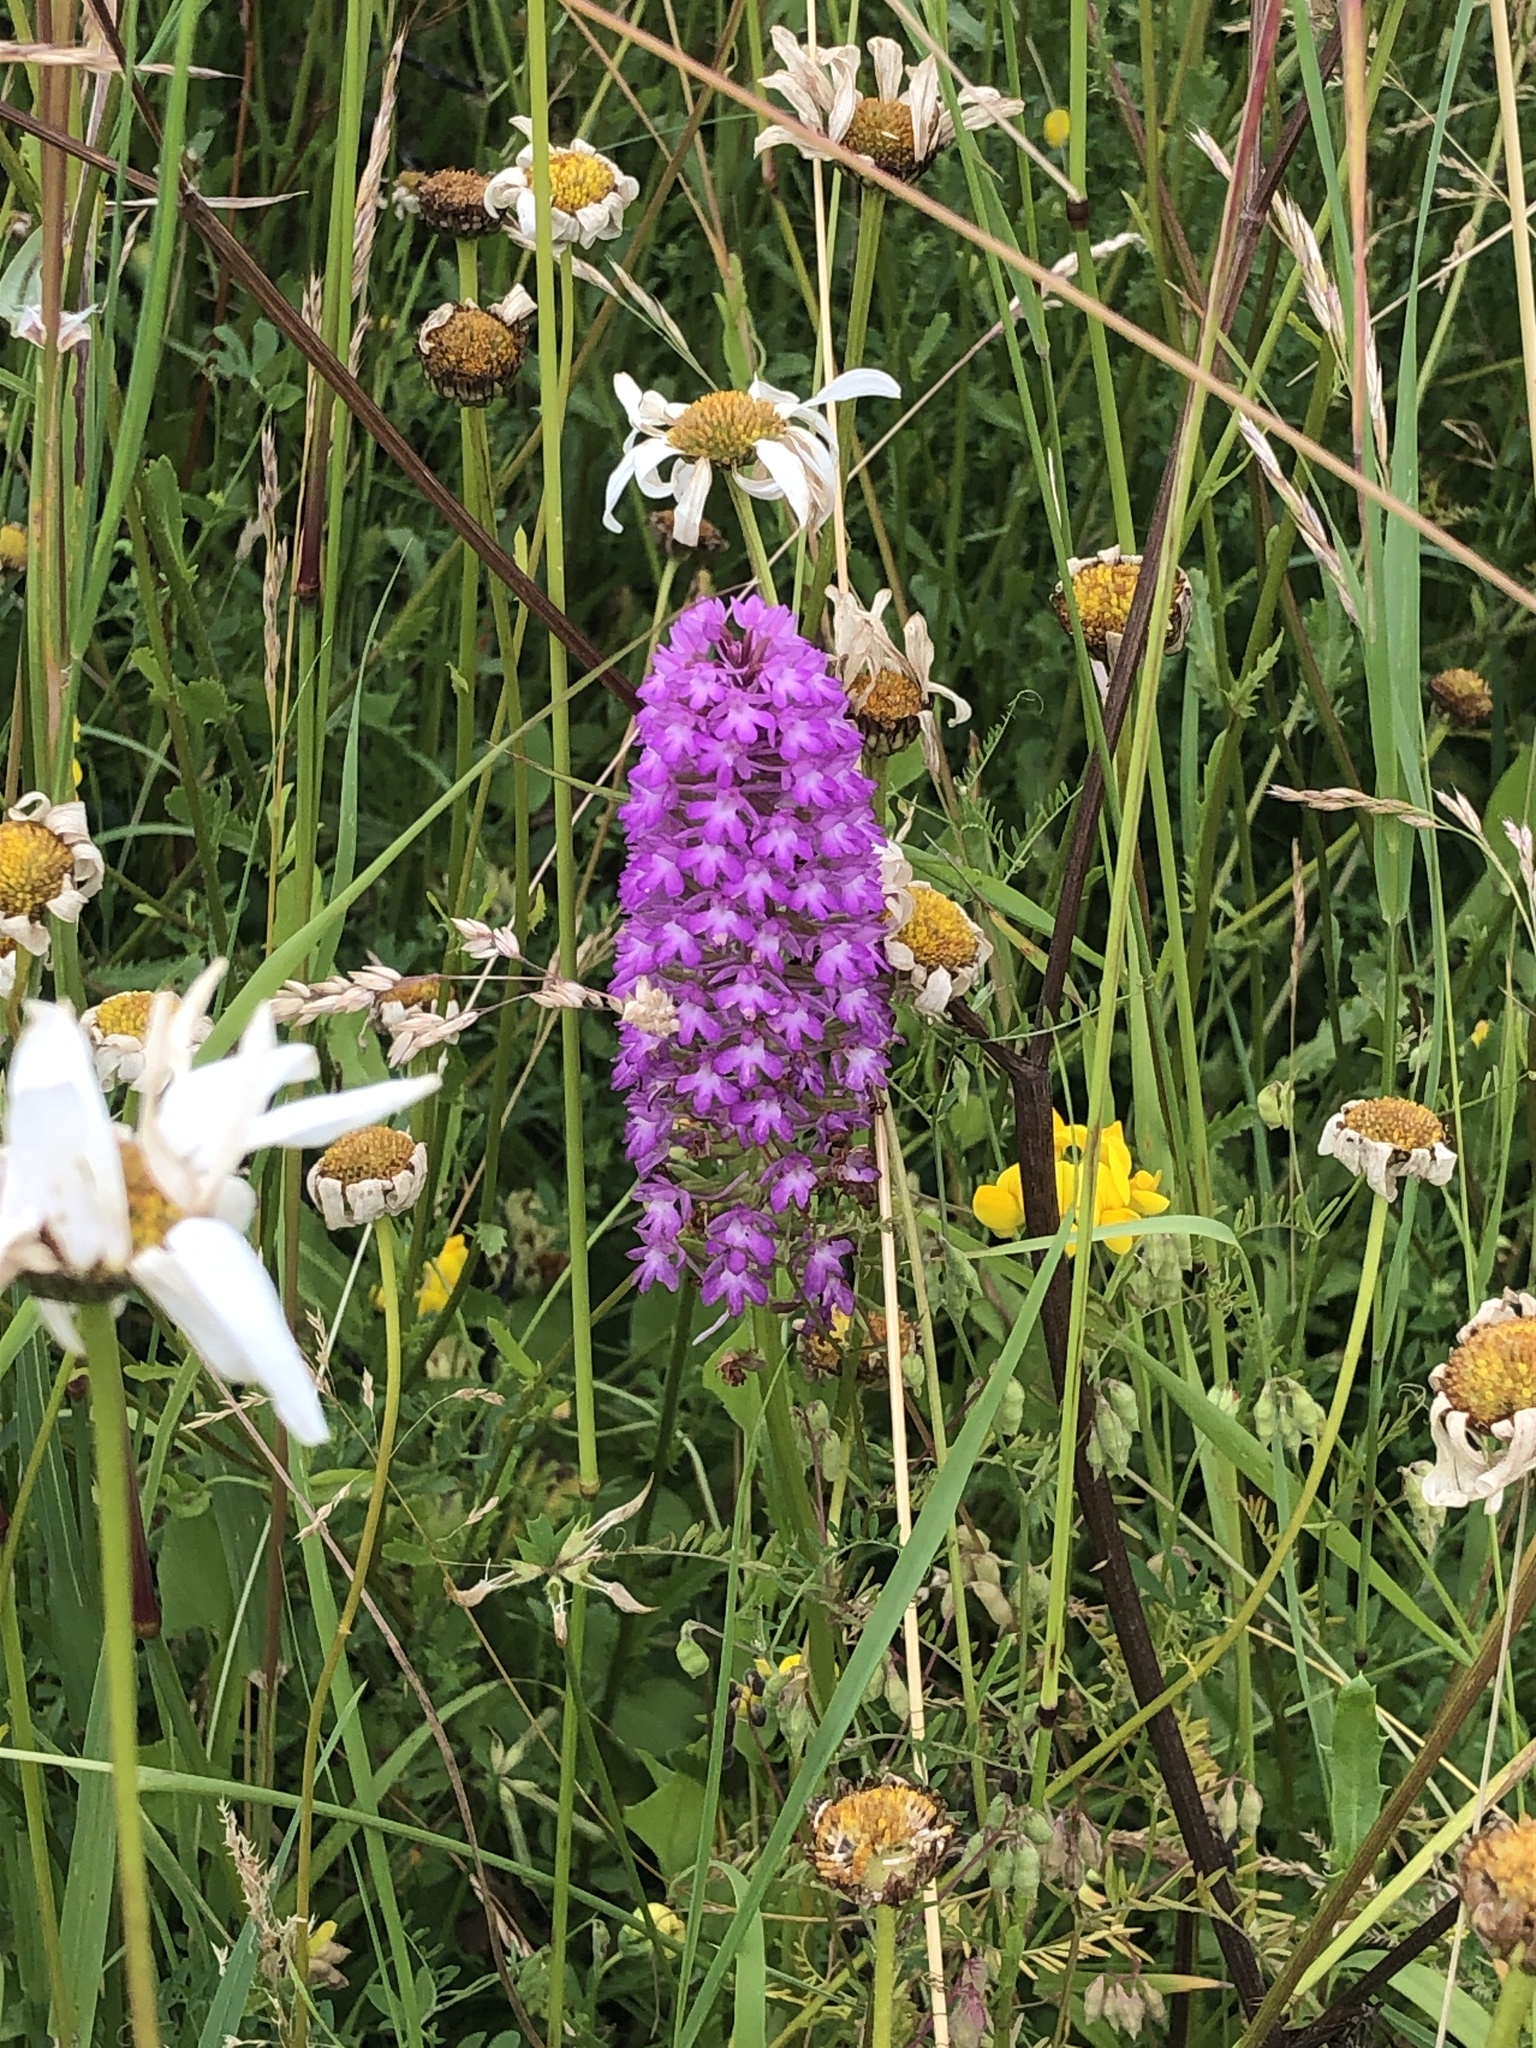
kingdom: Plantae
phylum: Tracheophyta
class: Liliopsida
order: Asparagales
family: Orchidaceae
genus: Anacamptis
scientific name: Anacamptis pyramidalis
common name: Pyramidal orchid
